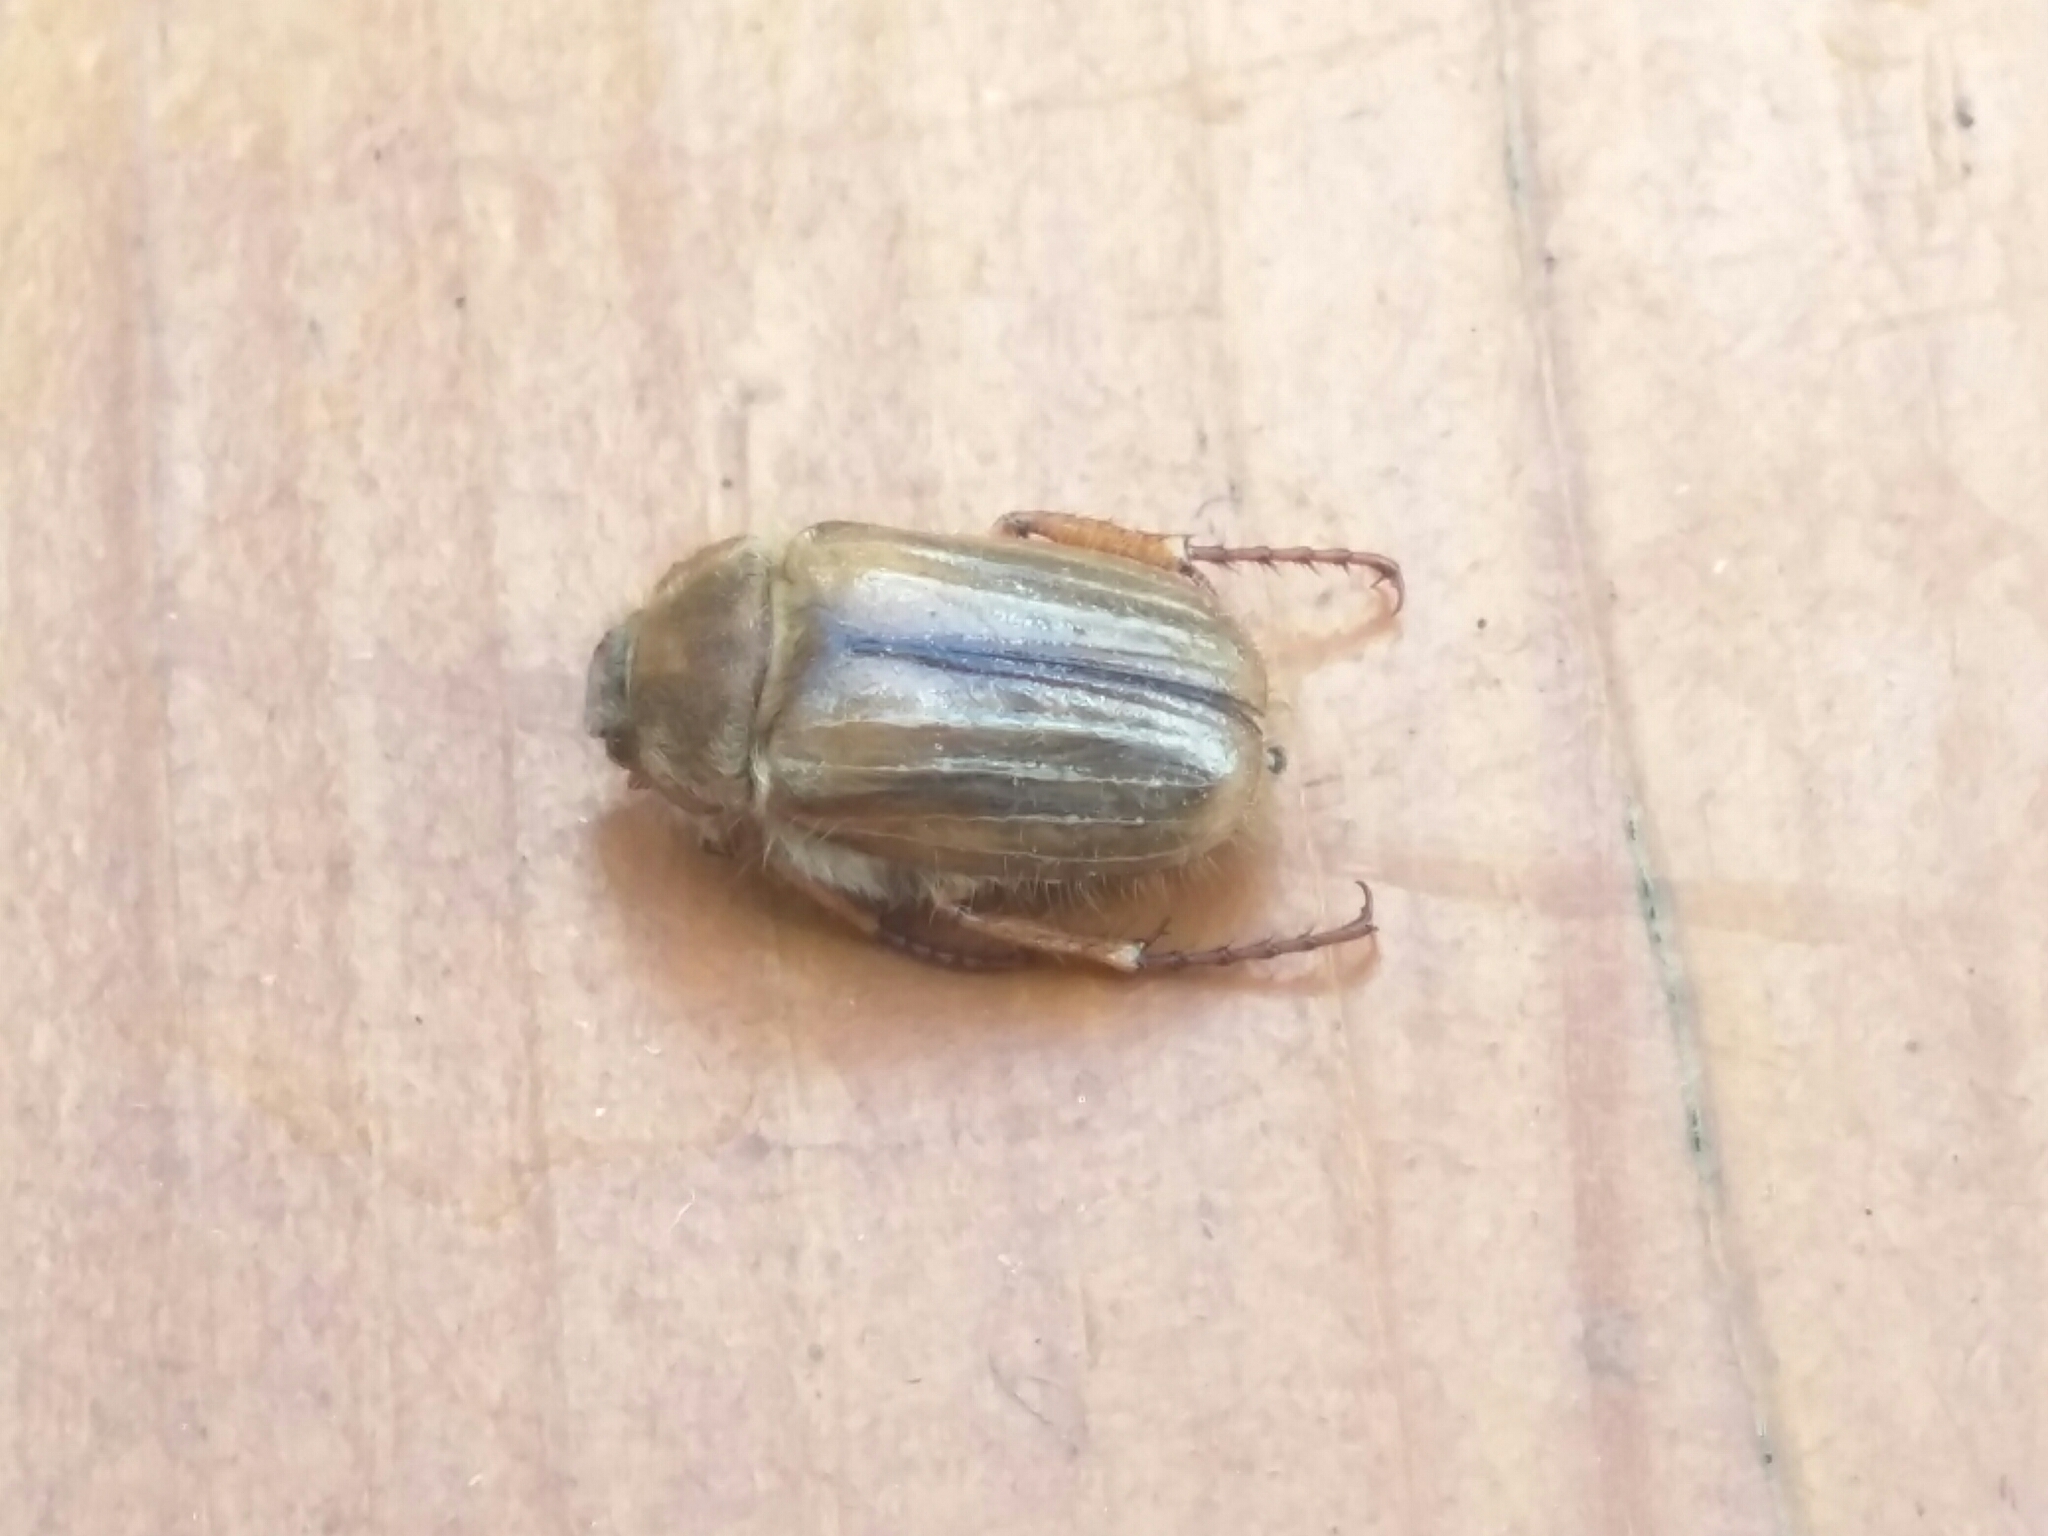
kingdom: Animalia
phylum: Arthropoda
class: Insecta
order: Coleoptera
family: Scarabaeidae
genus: Amphimallon
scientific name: Amphimallon solstitiale
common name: Summer chafer
